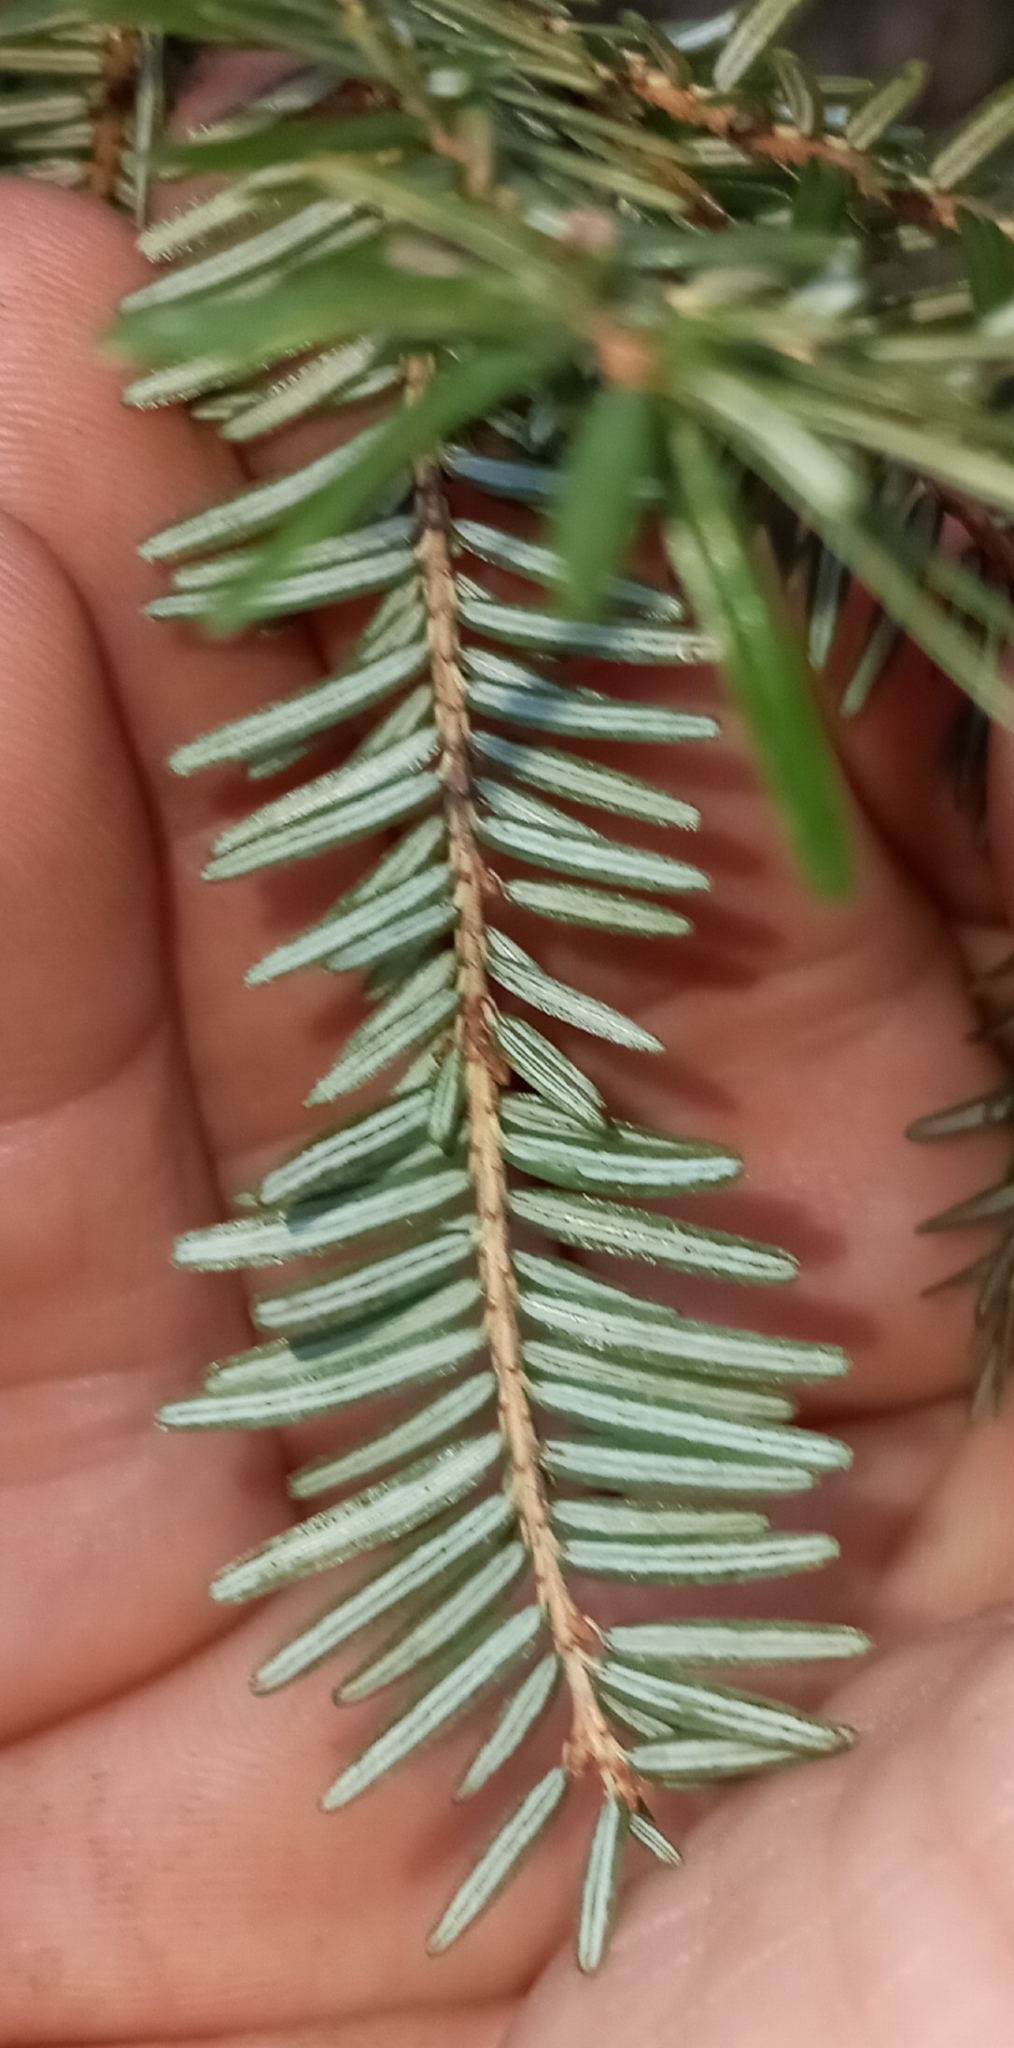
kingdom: Plantae
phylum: Tracheophyta
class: Pinopsida
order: Pinales
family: Pinaceae
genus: Tsuga
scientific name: Tsuga canadensis
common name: Eastern hemlock
